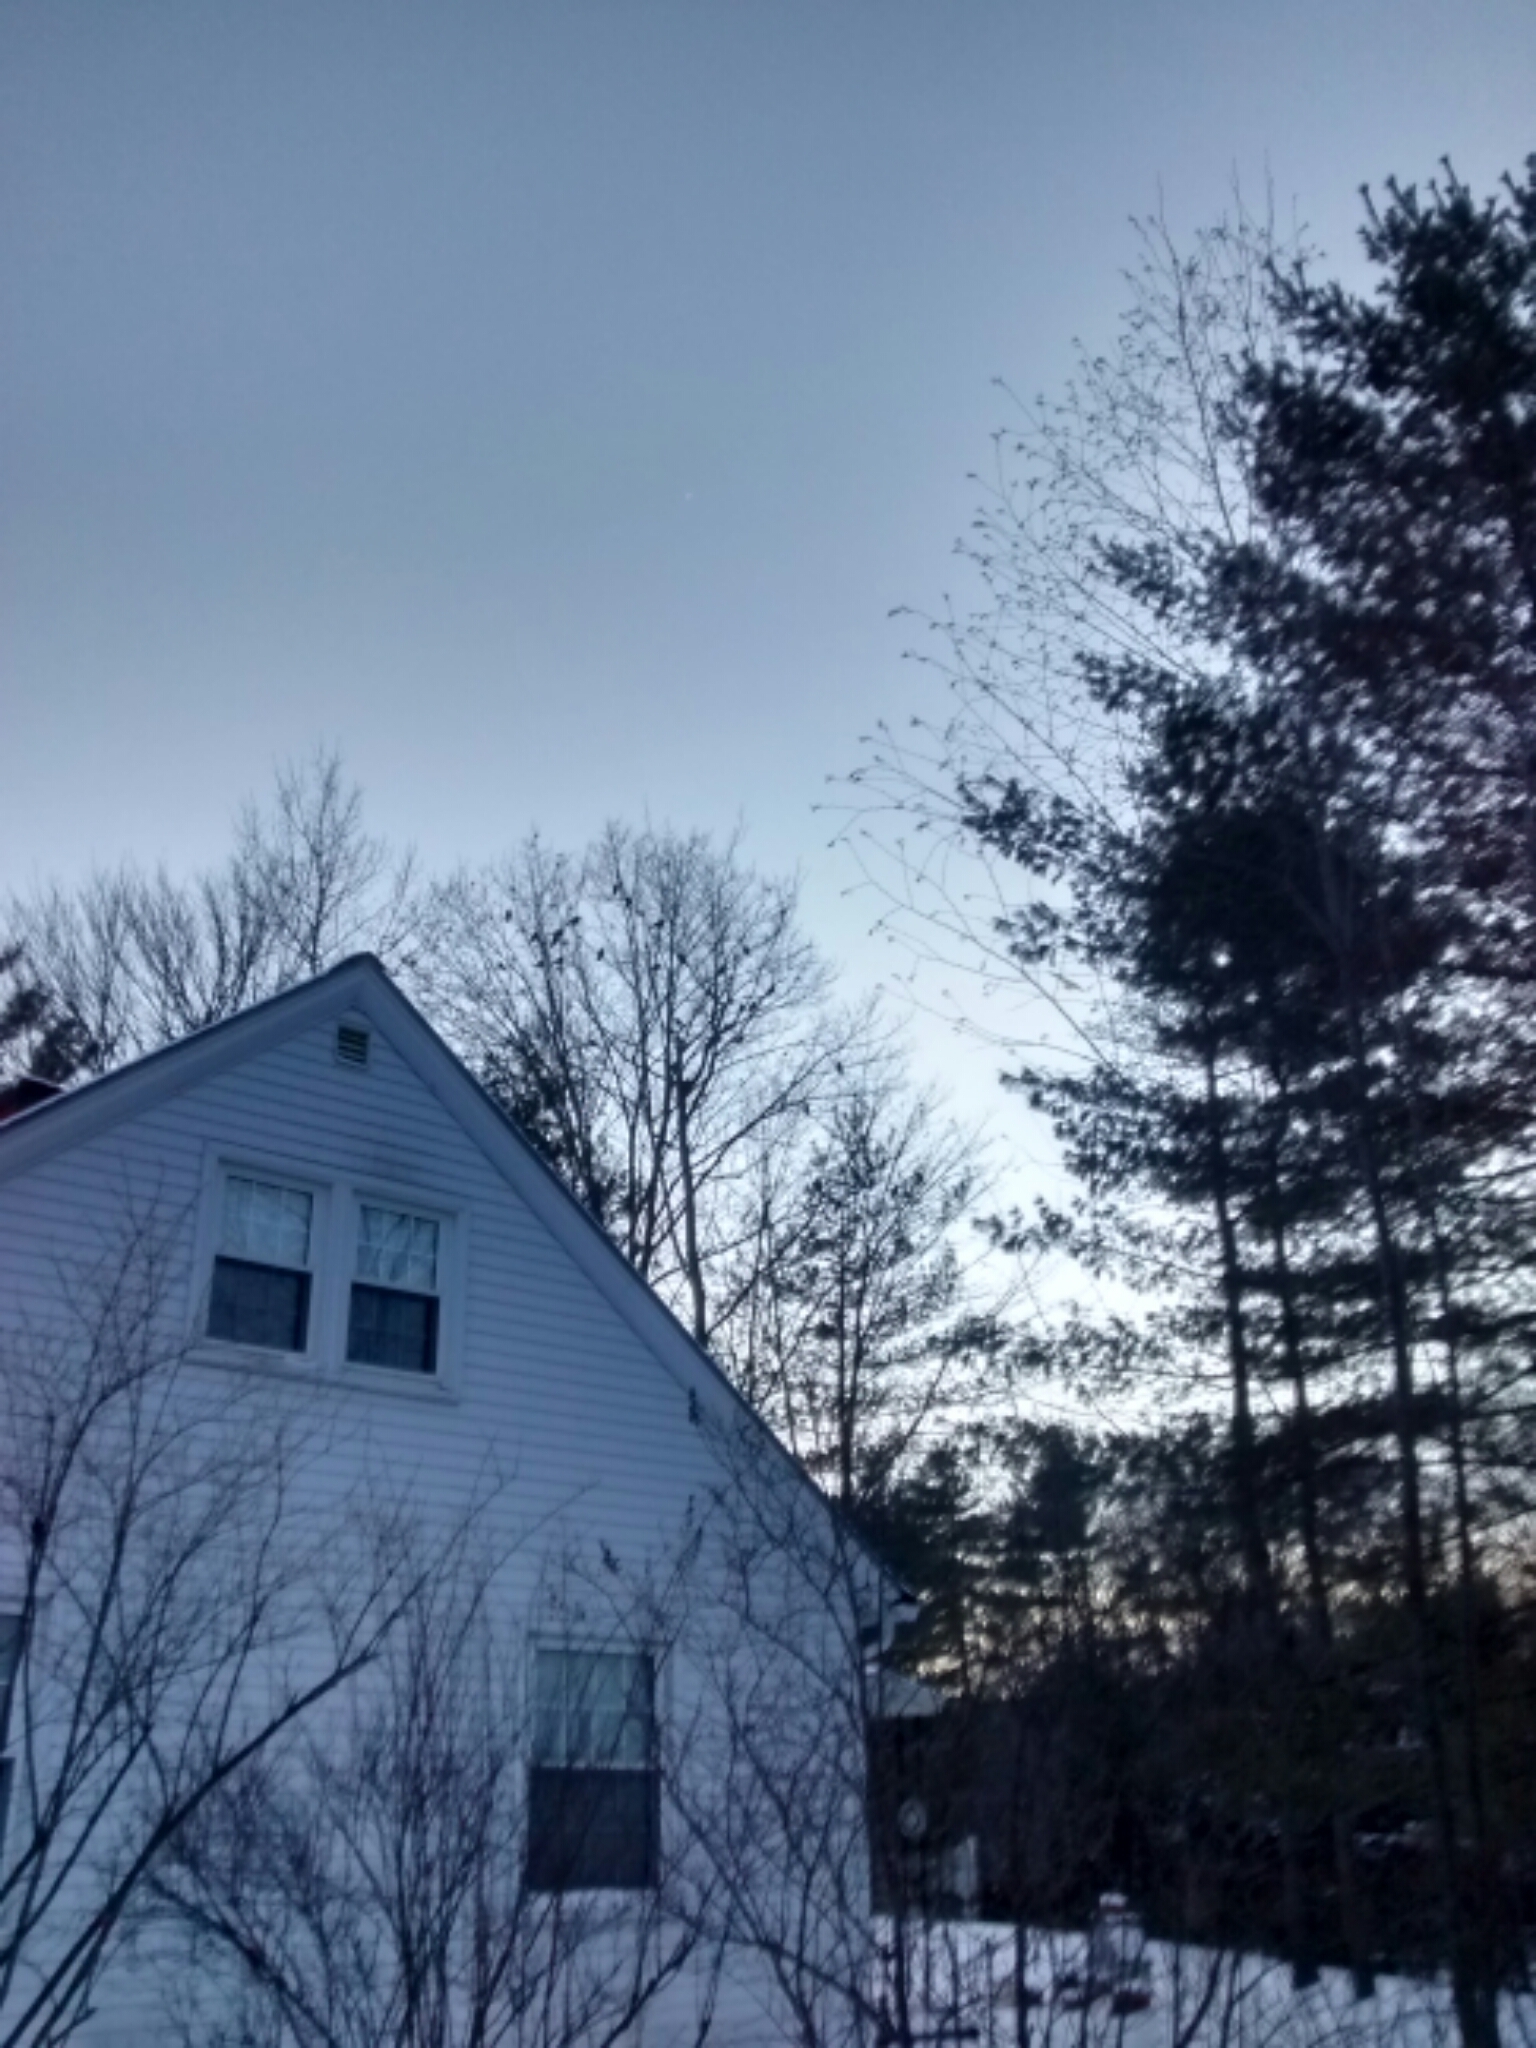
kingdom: Animalia
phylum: Chordata
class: Aves
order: Passeriformes
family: Corvidae
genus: Corvus
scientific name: Corvus brachyrhynchos
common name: American crow
